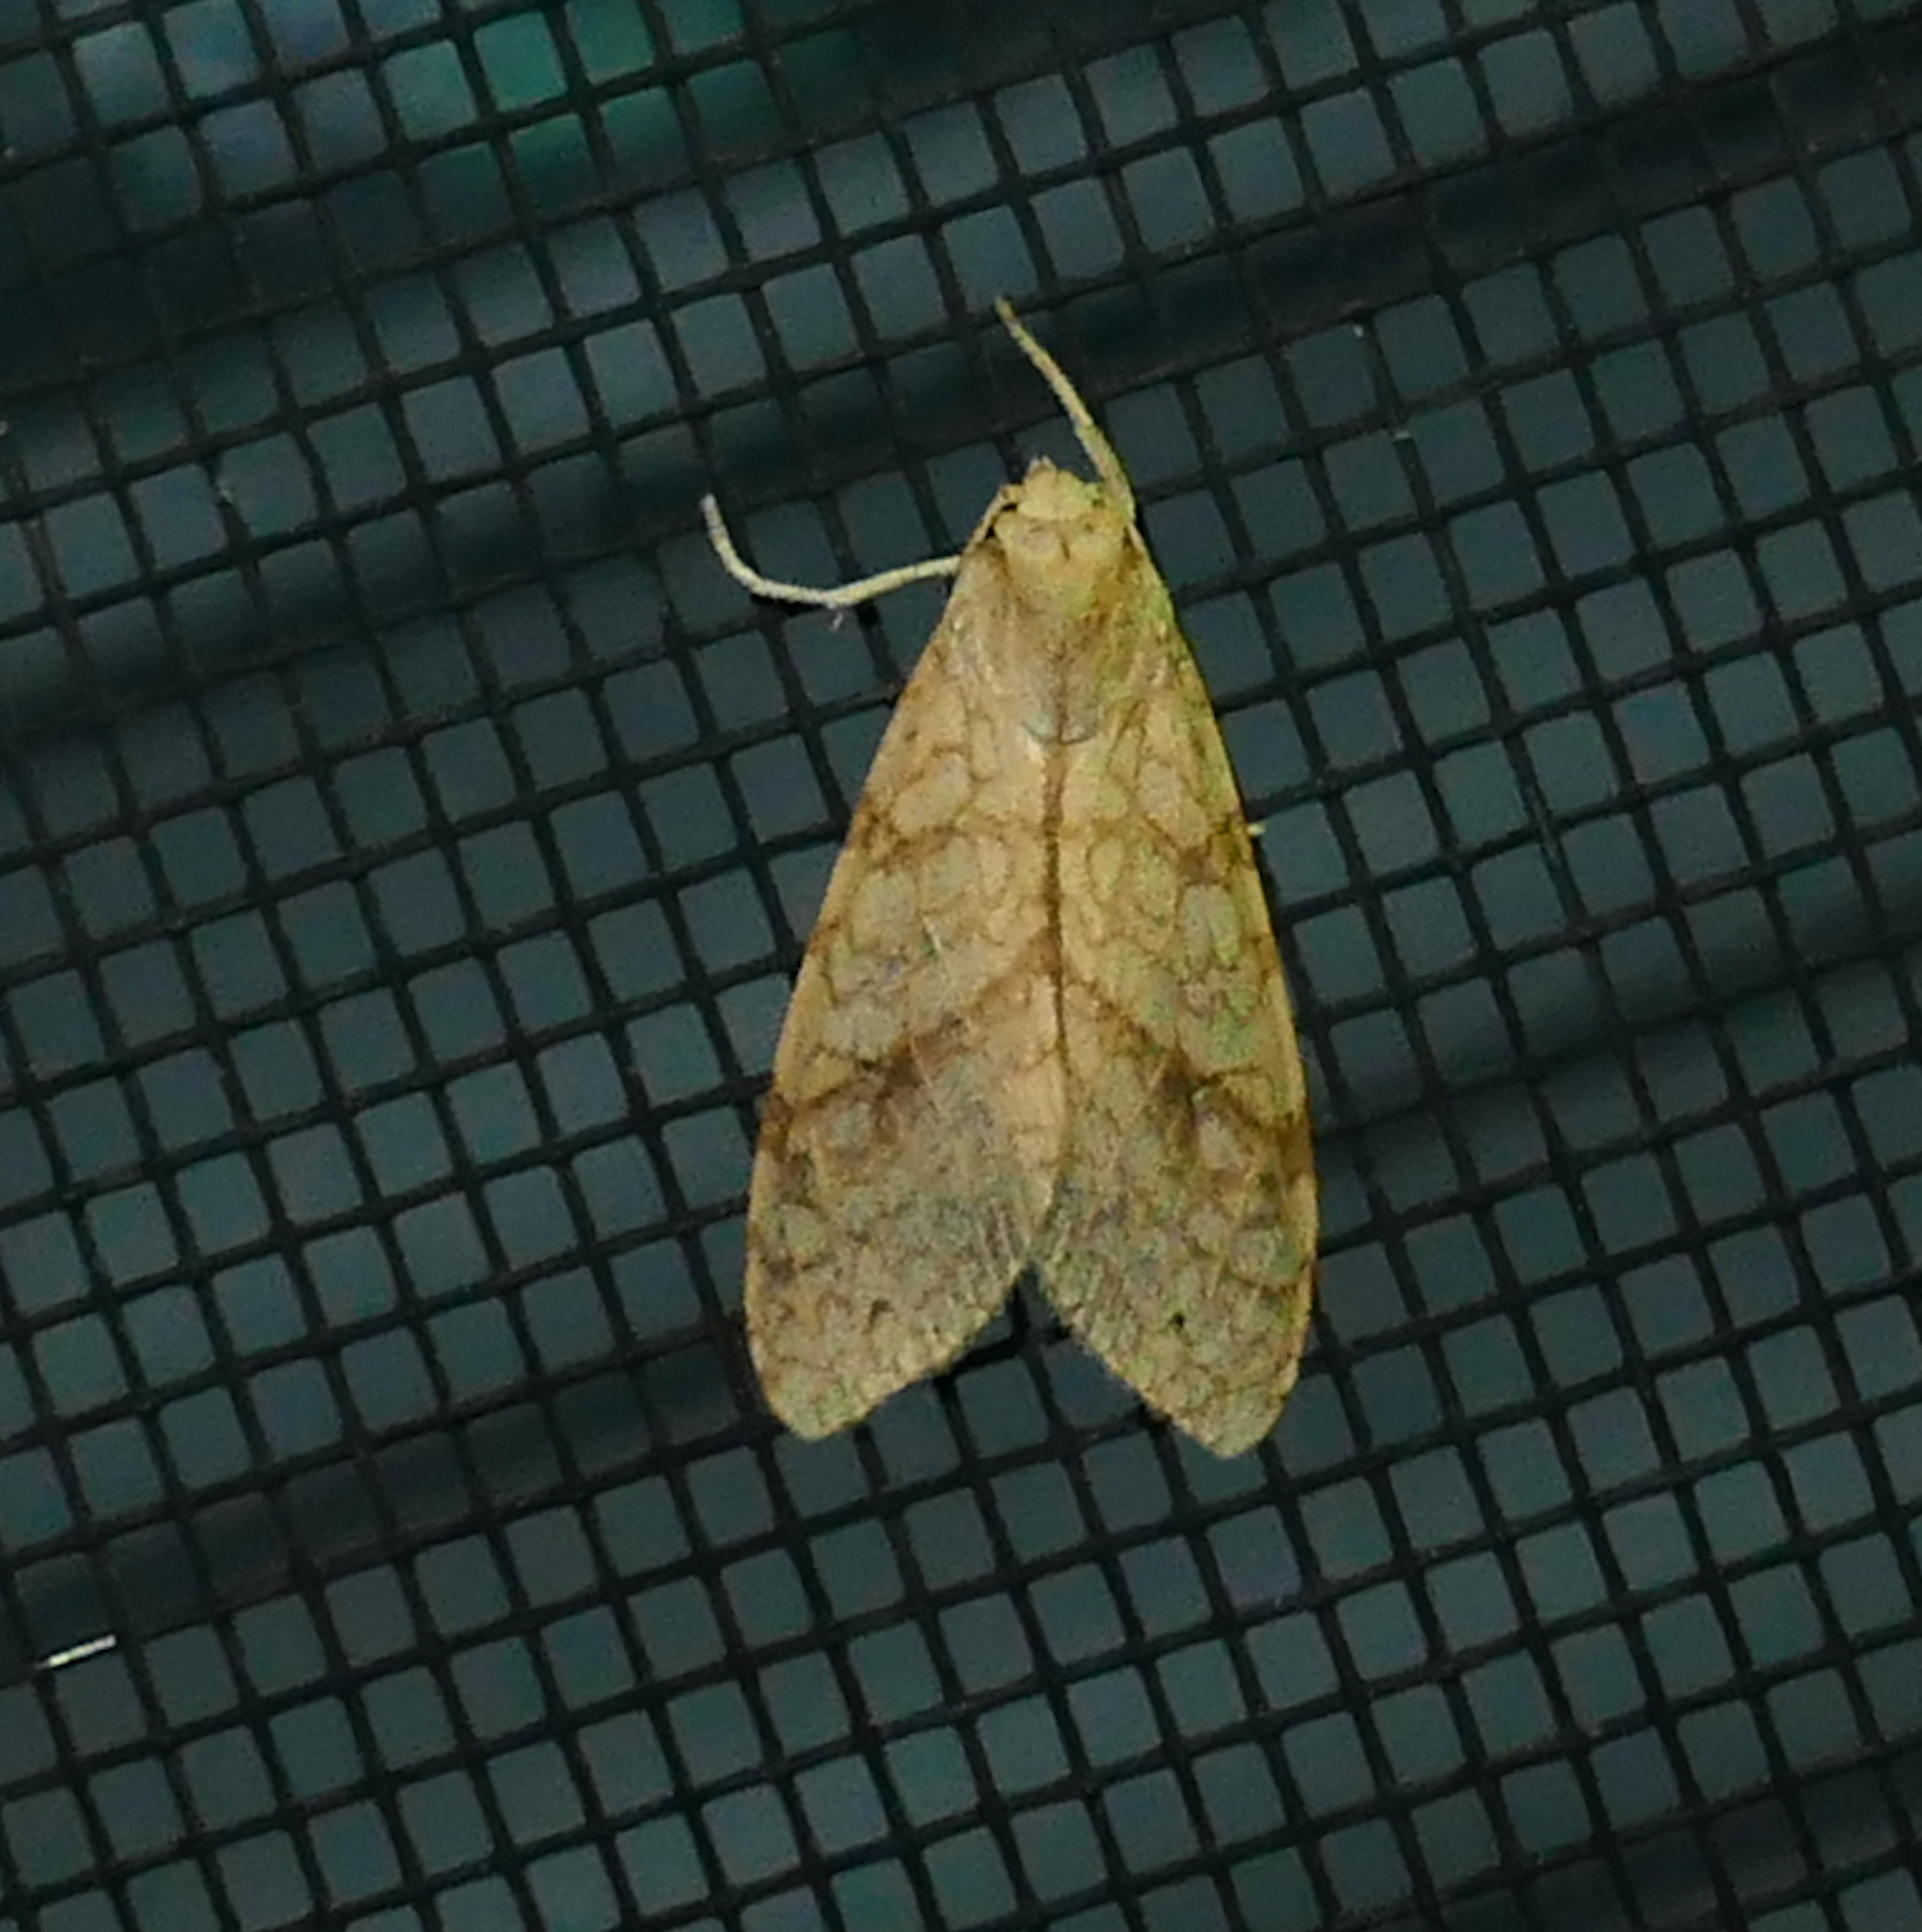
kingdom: Animalia
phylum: Arthropoda
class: Insecta
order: Lepidoptera
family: Erebidae
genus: Lophocampa
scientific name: Lophocampa annulosa
